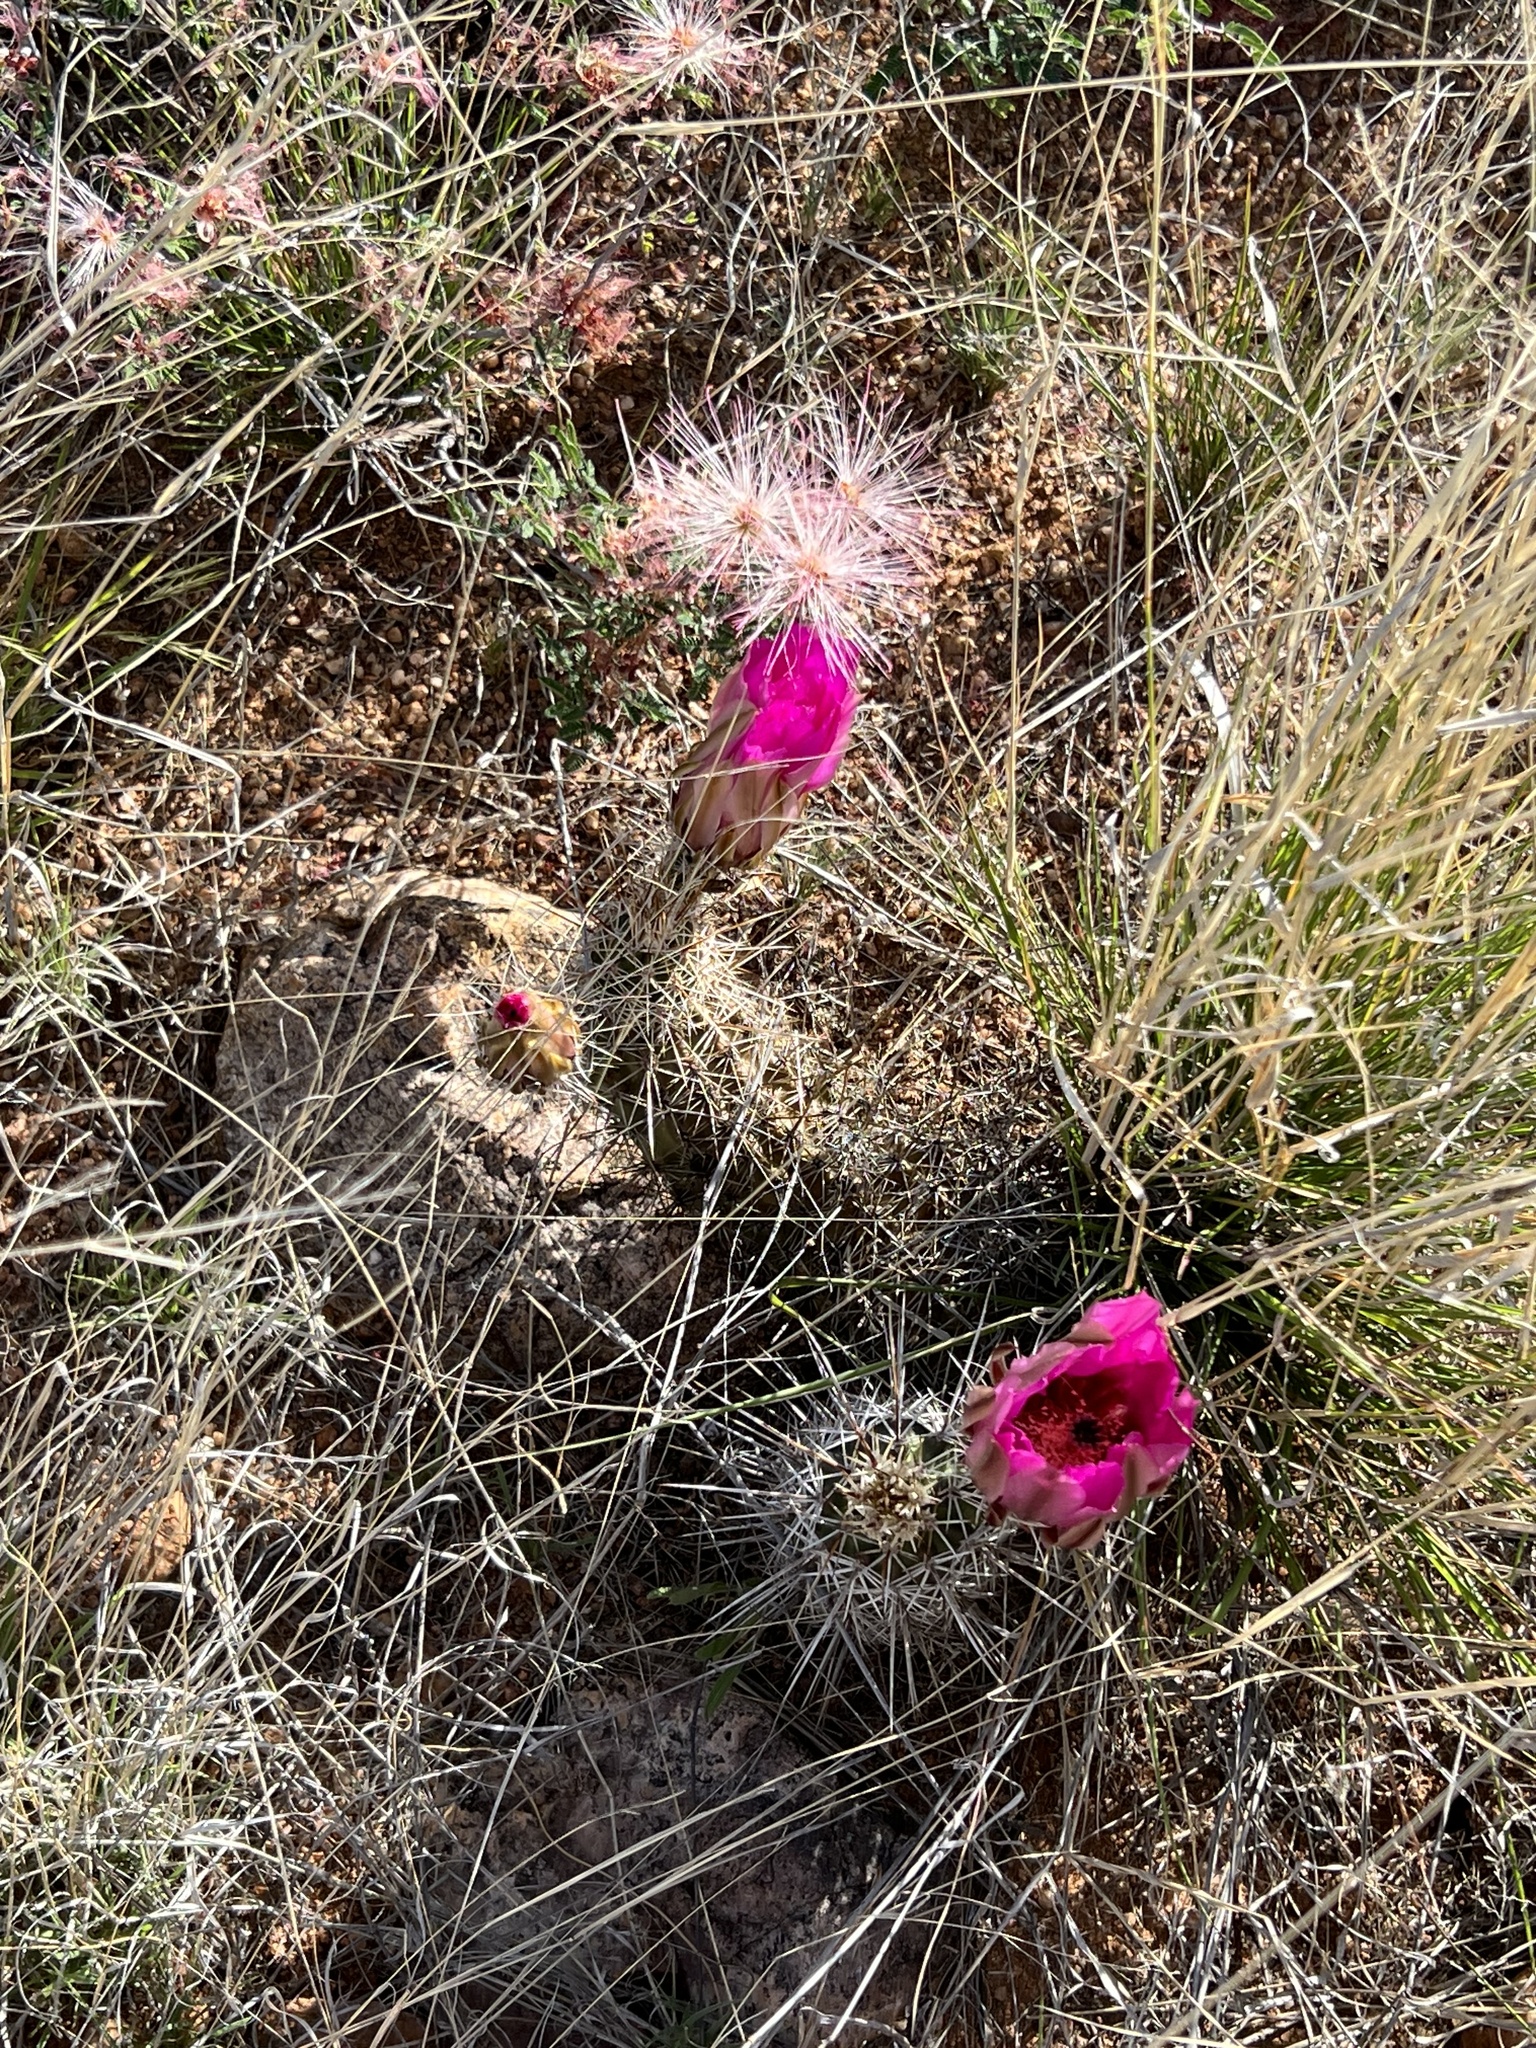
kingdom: Plantae
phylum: Tracheophyta
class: Magnoliopsida
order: Caryophyllales
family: Cactaceae
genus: Echinocereus
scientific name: Echinocereus fasciculatus
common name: Bundle hedgehog
